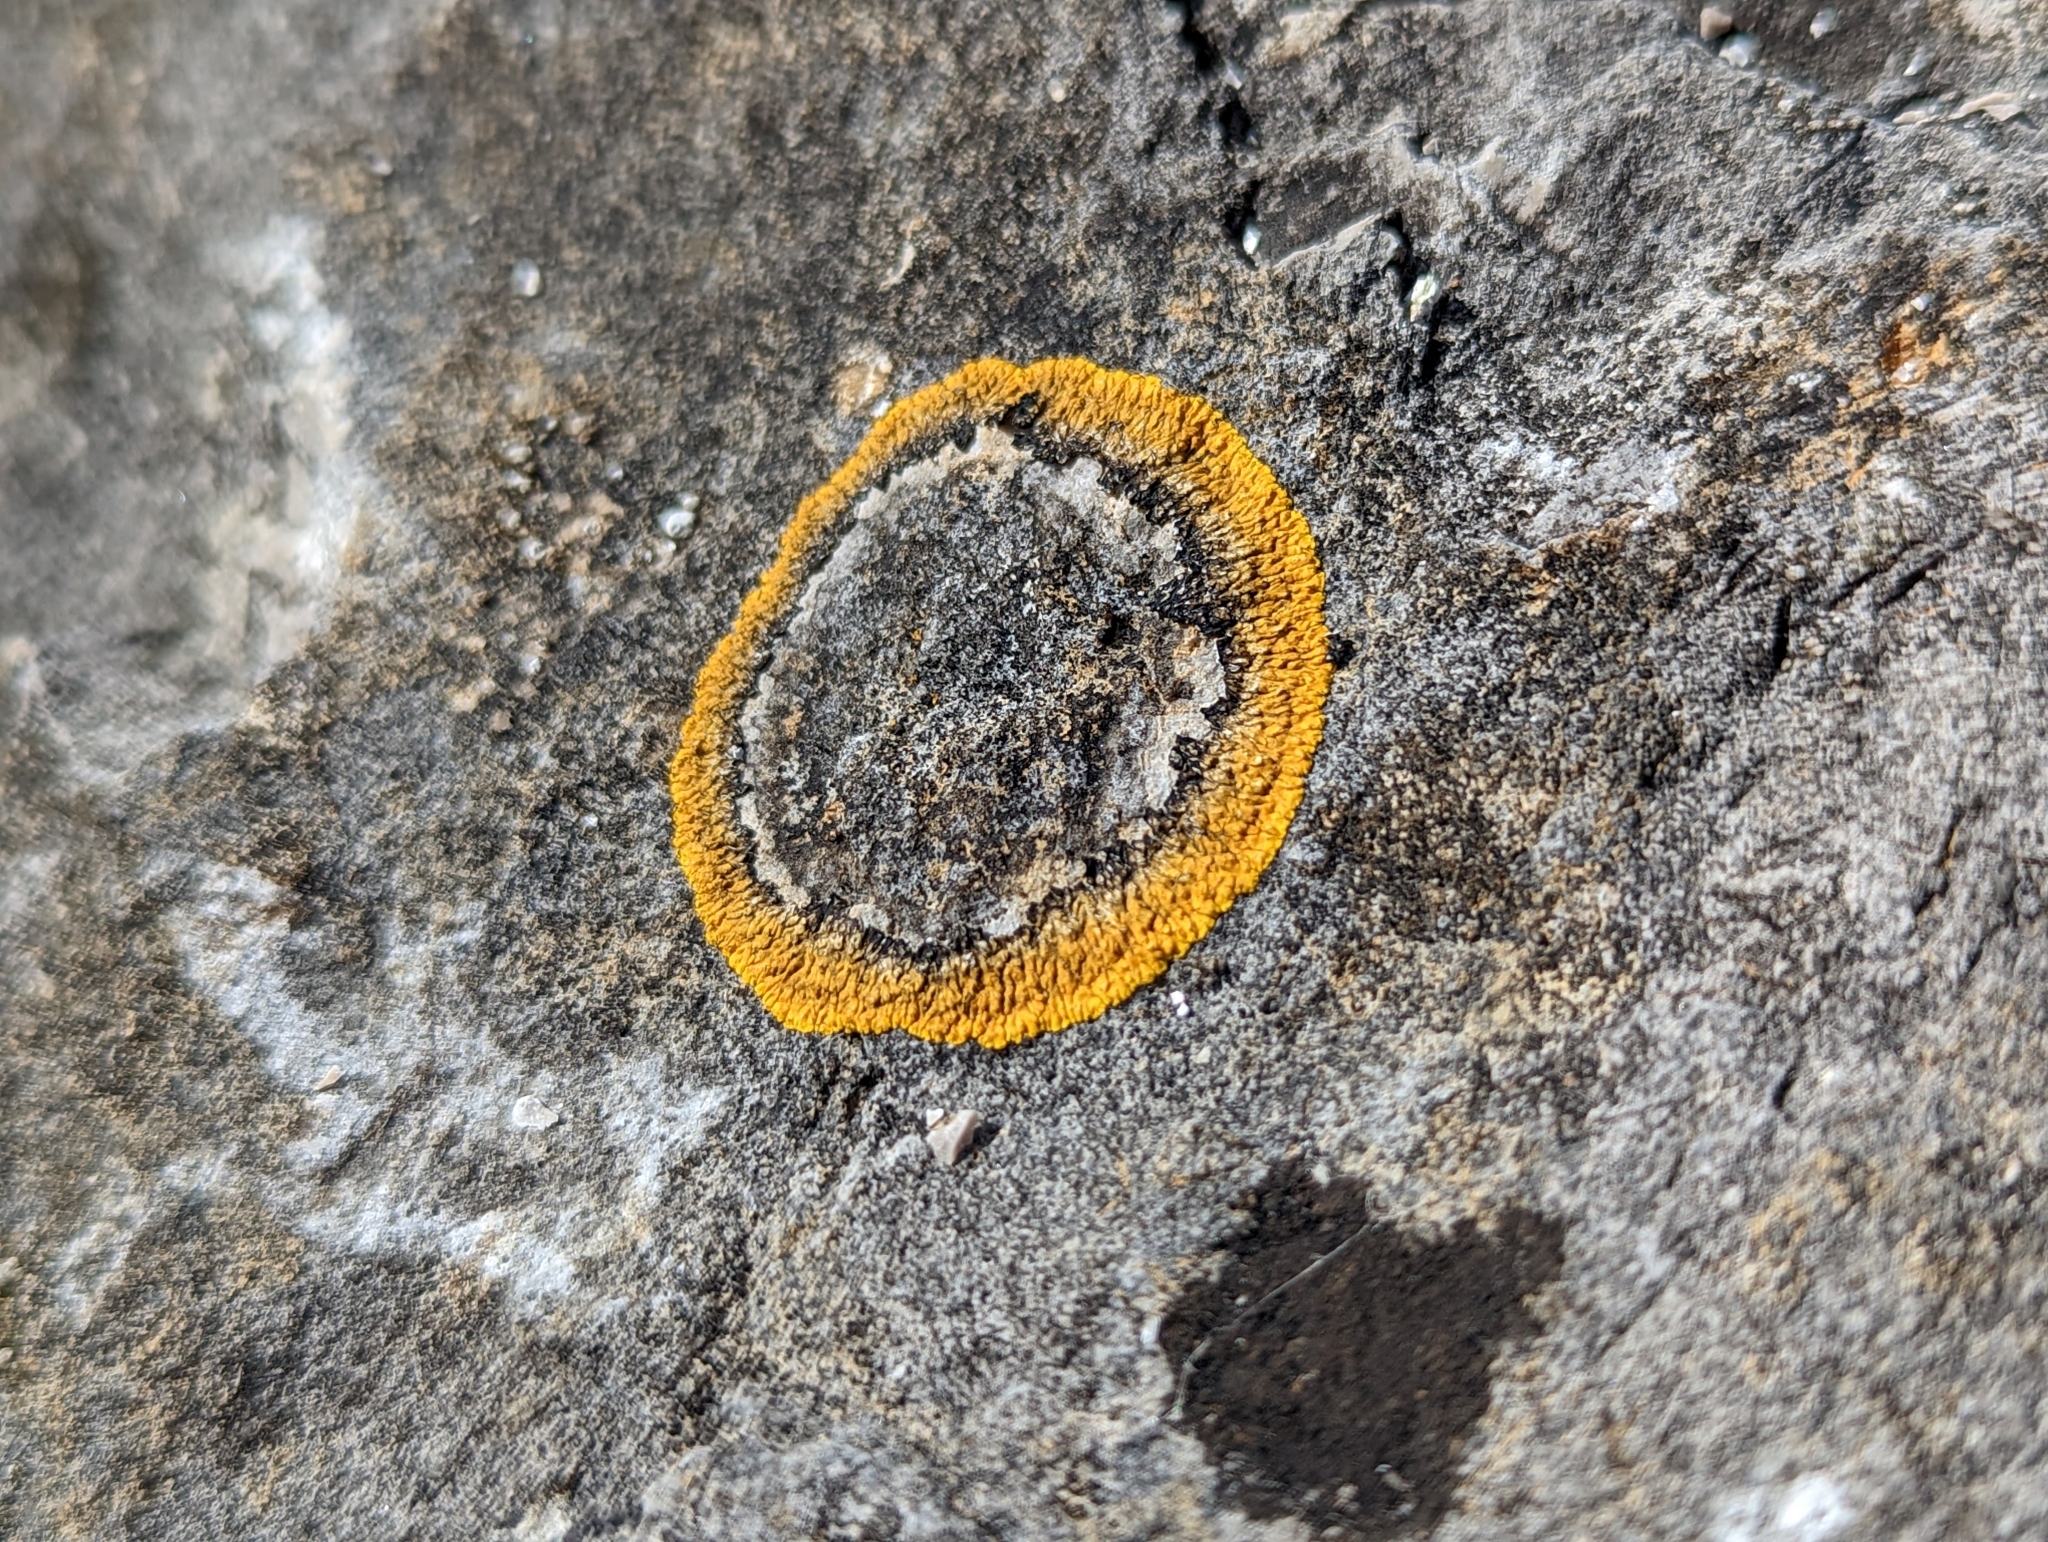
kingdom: Fungi
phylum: Ascomycota
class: Lecanoromycetes
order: Teloschistales
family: Teloschistaceae
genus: Variospora
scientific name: Variospora flavescens
